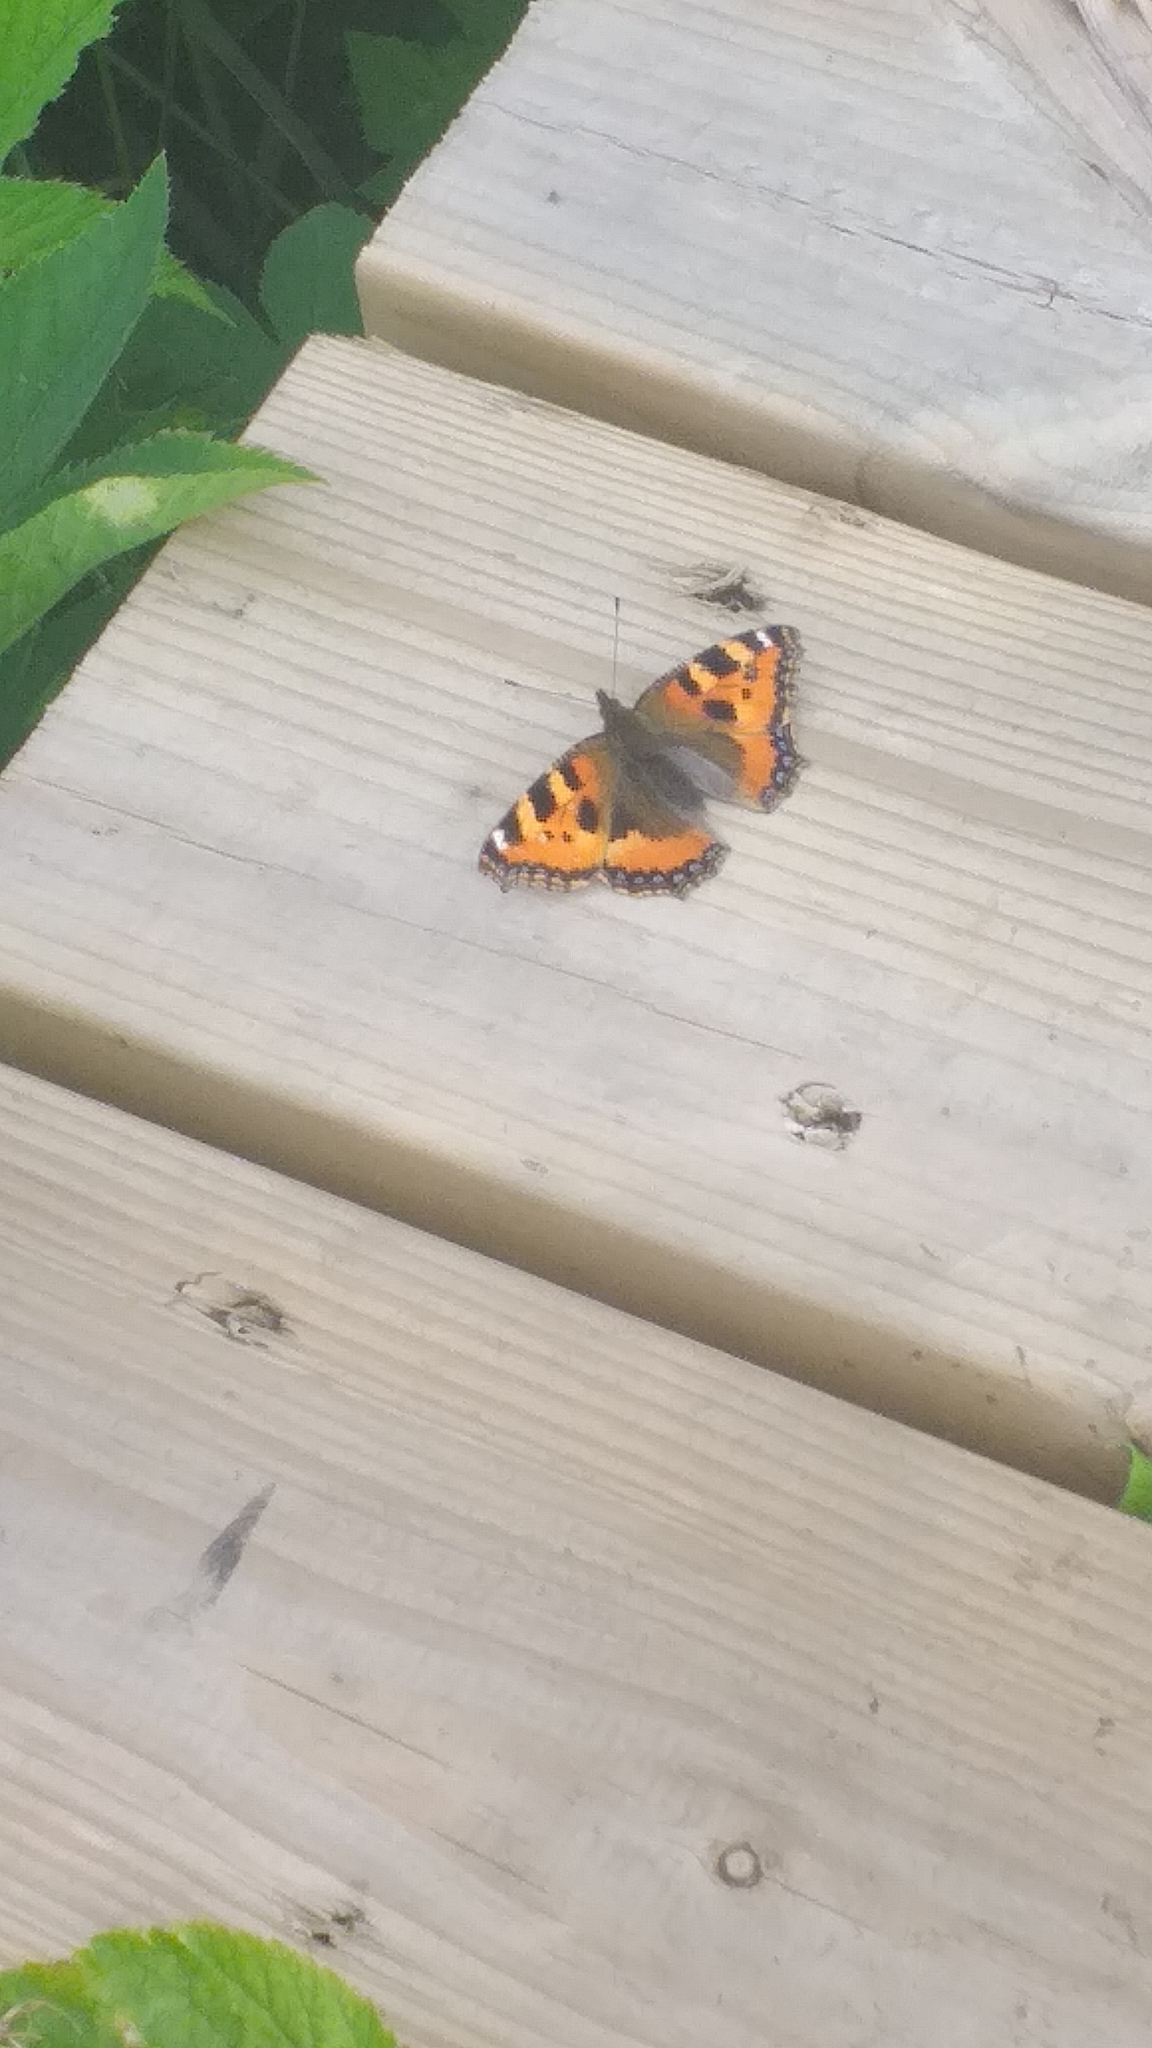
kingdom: Animalia
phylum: Arthropoda
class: Insecta
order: Lepidoptera
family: Nymphalidae
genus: Aglais
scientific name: Aglais urticae
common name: Small tortoiseshell
